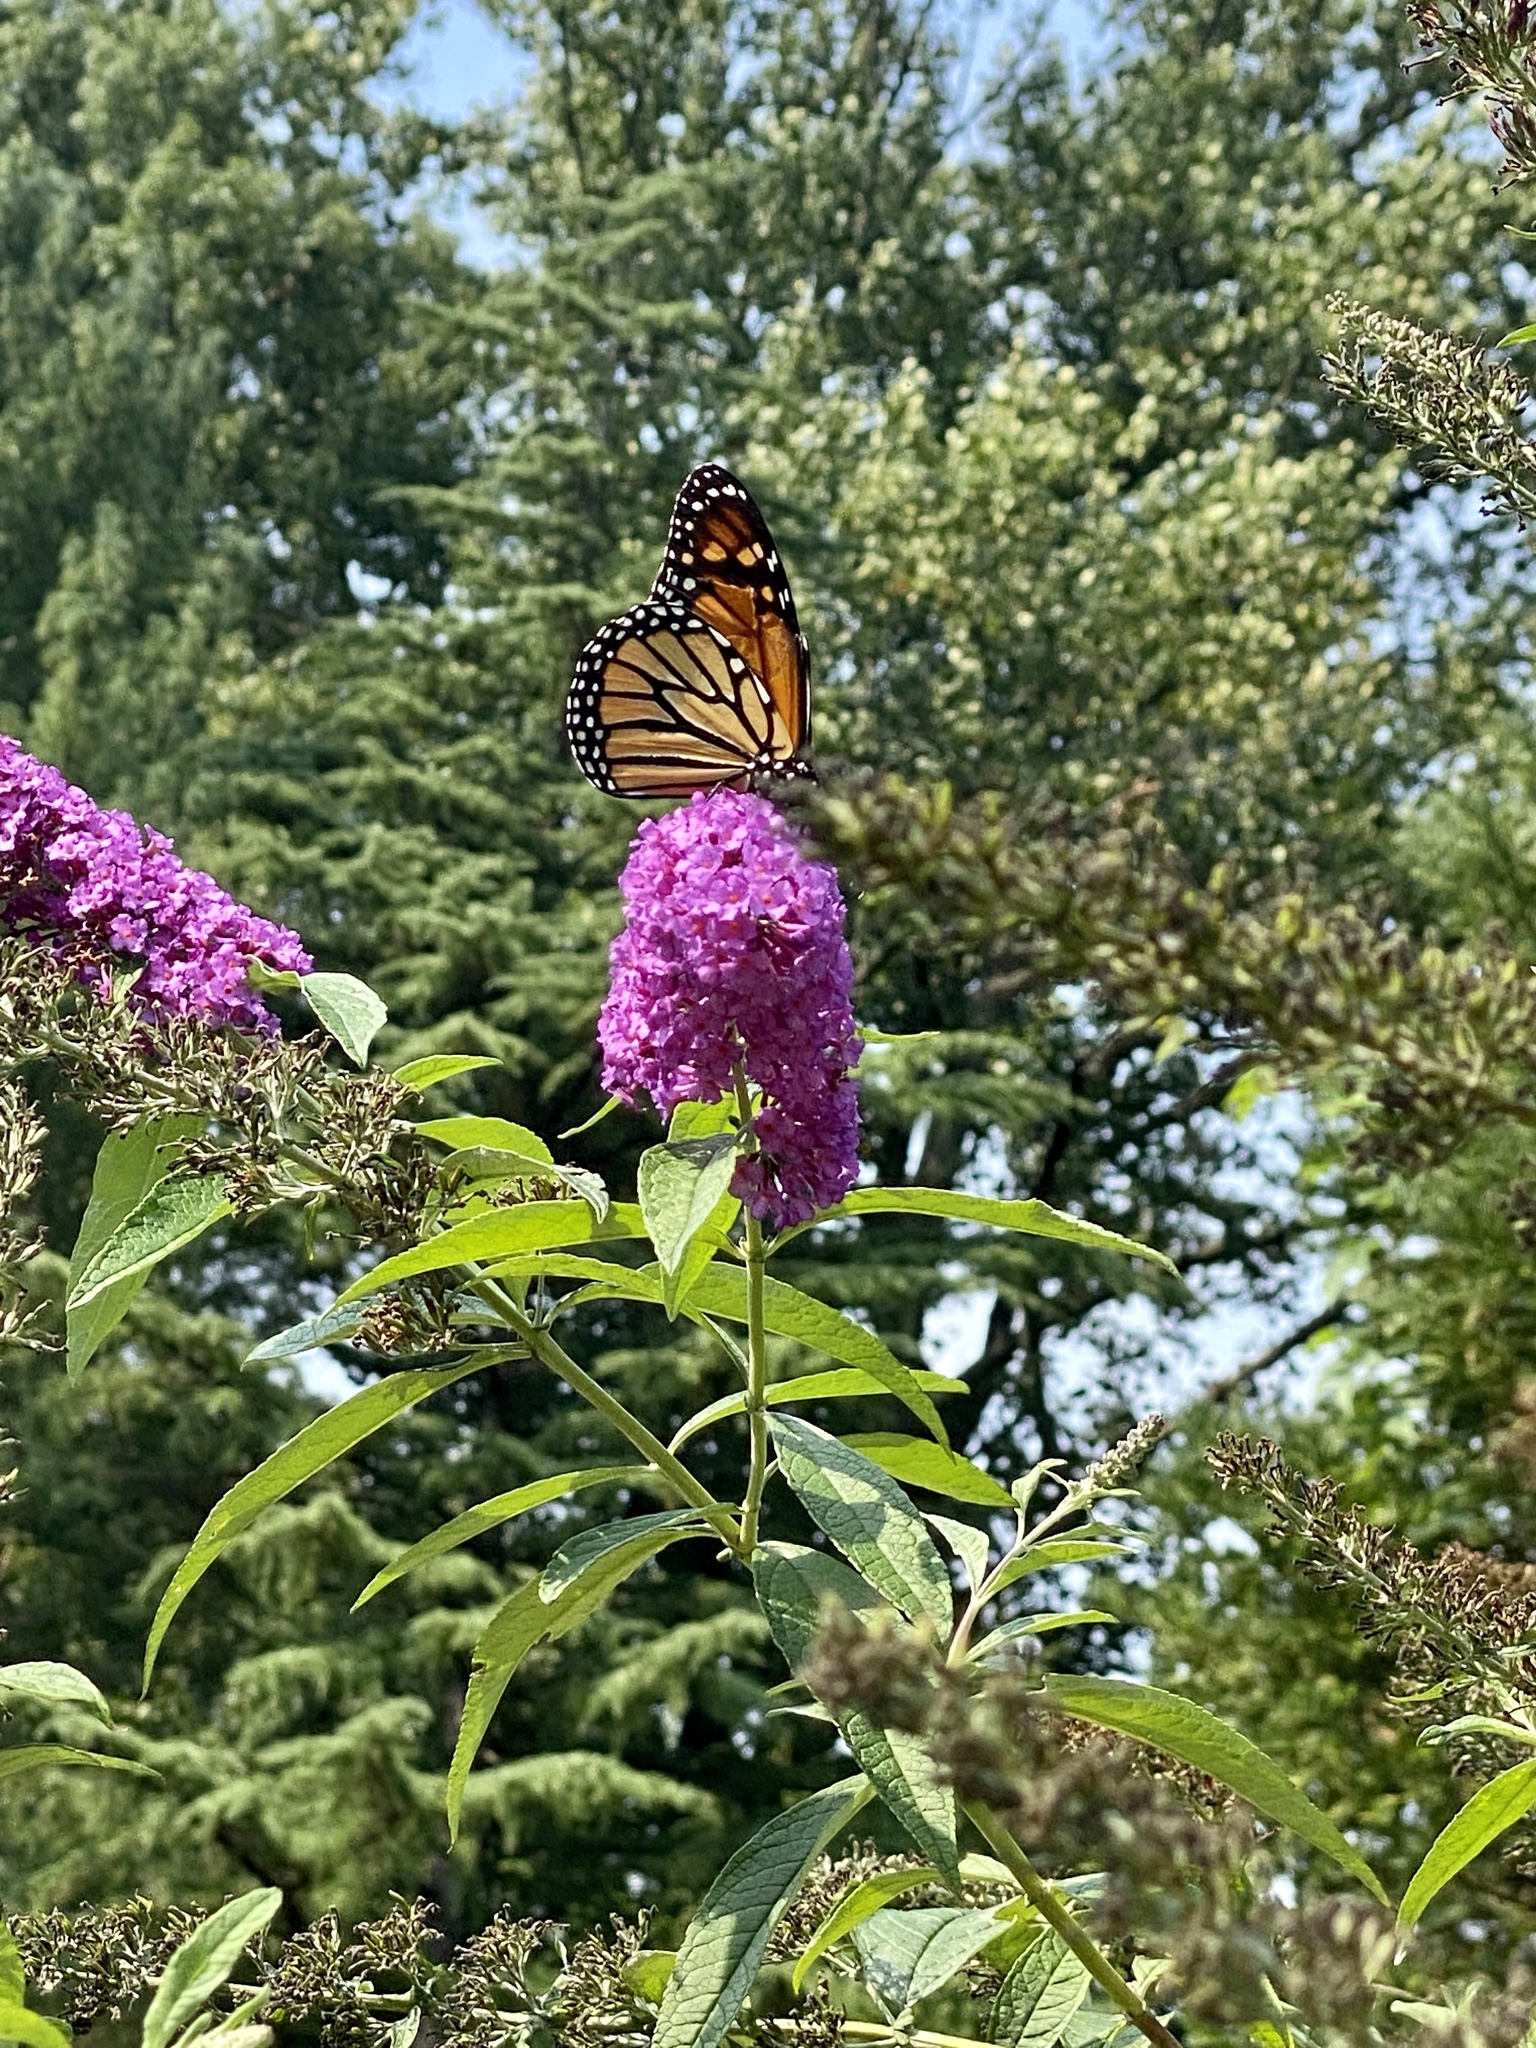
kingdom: Animalia
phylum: Arthropoda
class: Insecta
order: Lepidoptera
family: Nymphalidae
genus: Danaus
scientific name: Danaus plexippus
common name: Monarch
